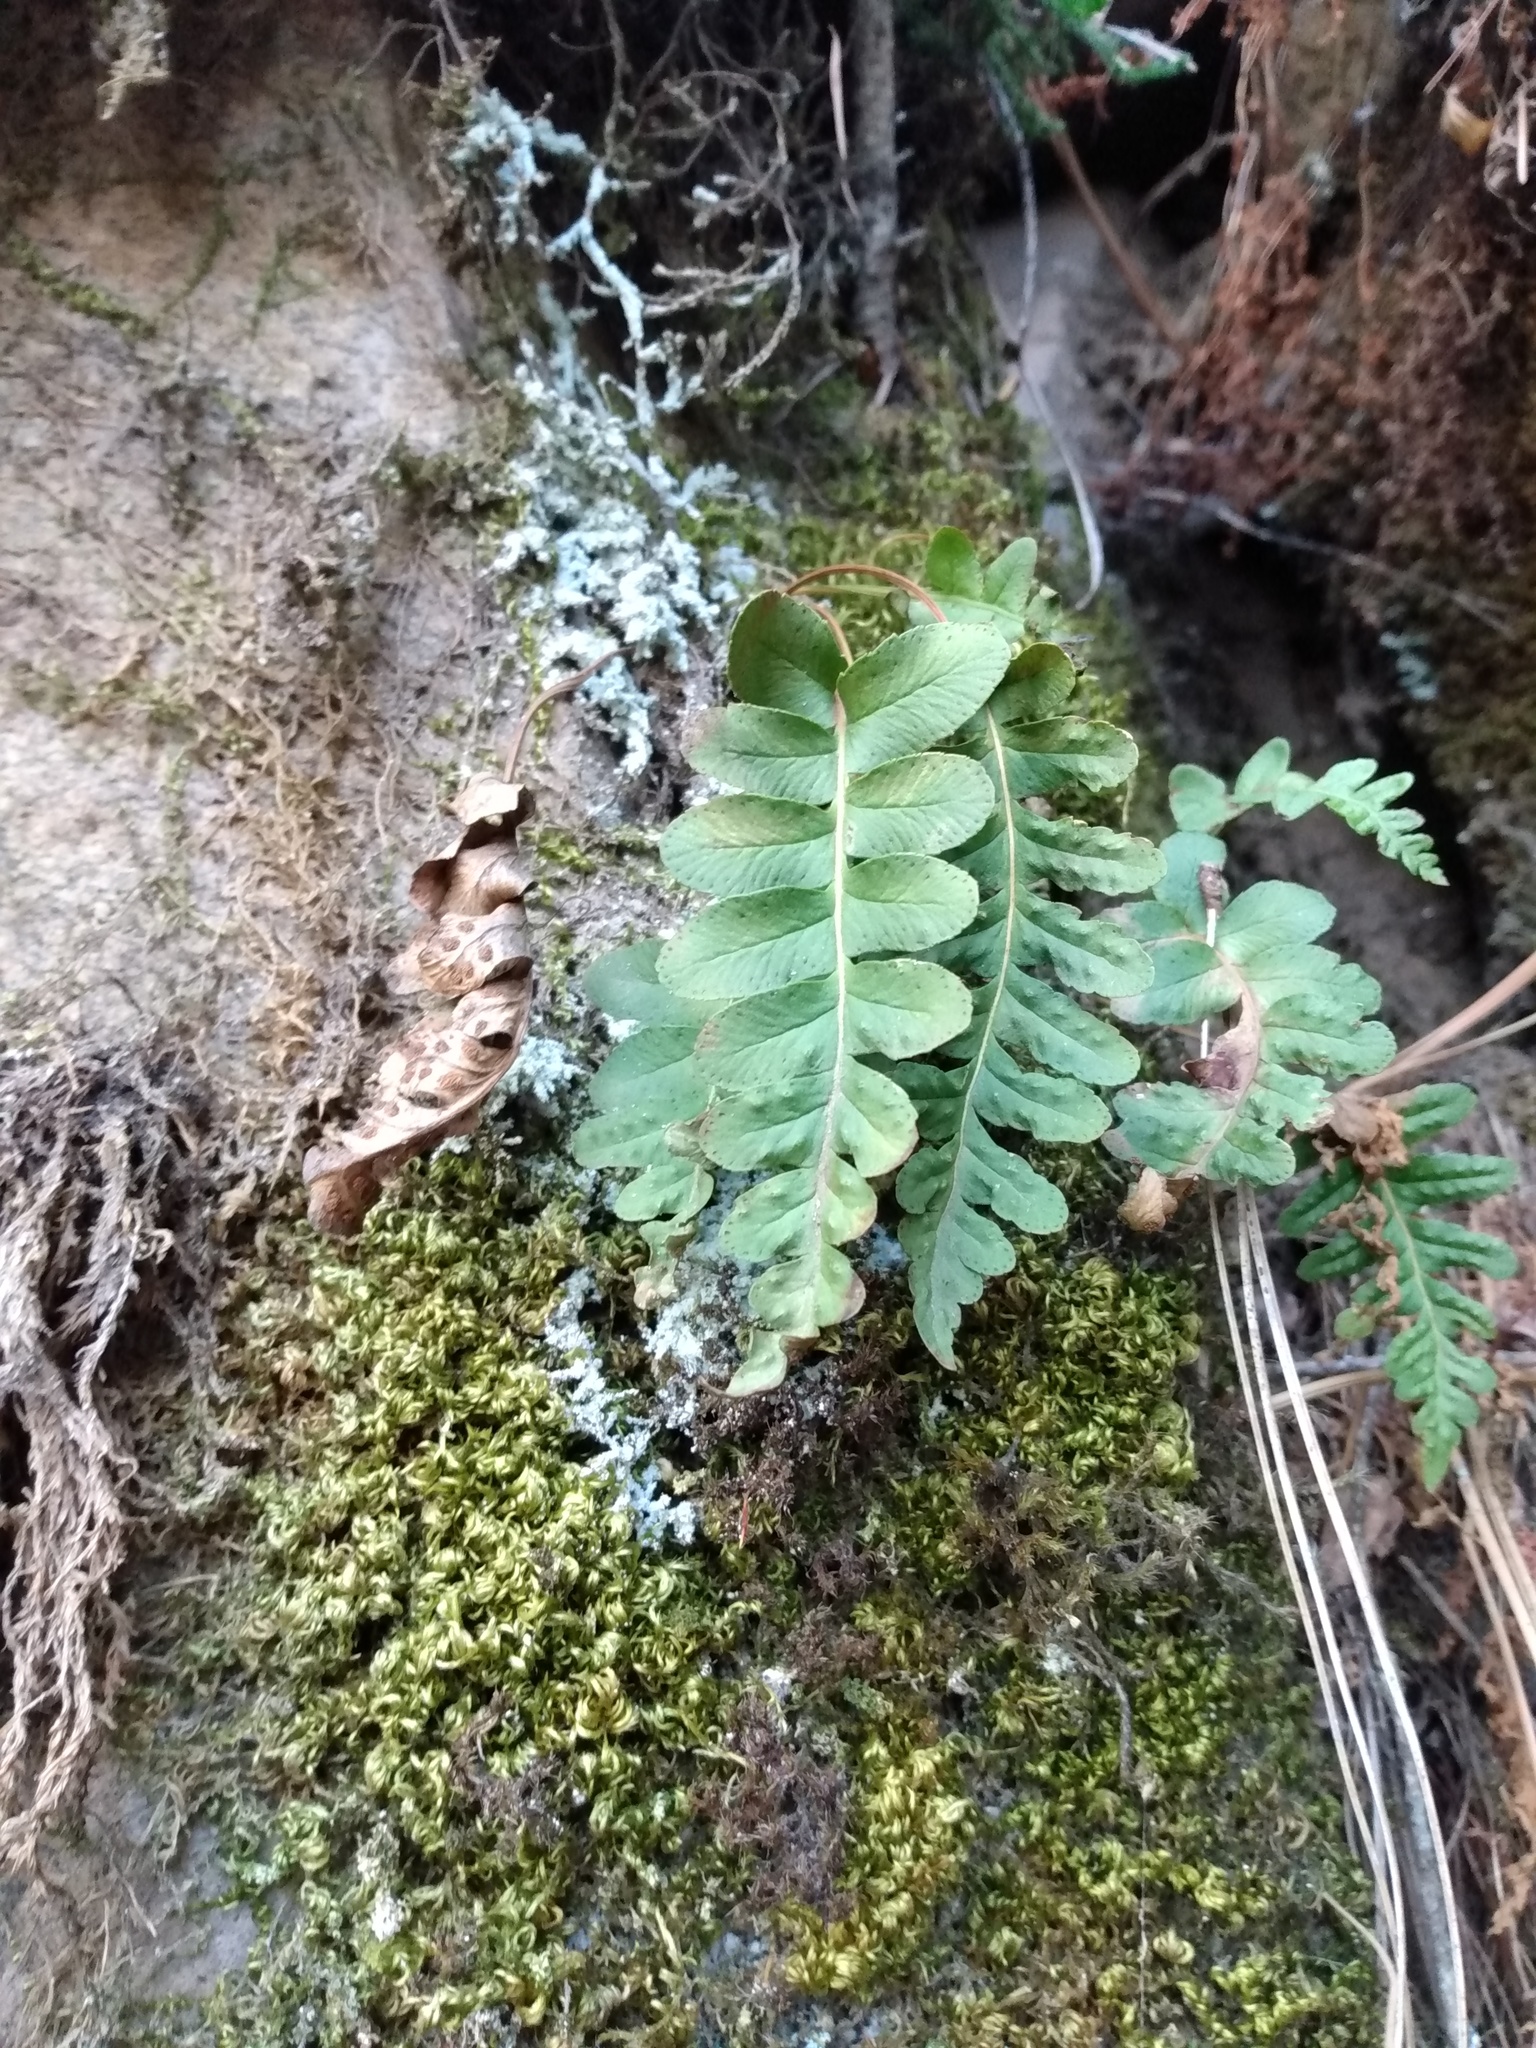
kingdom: Plantae
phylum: Tracheophyta
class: Polypodiopsida
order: Polypodiales
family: Polypodiaceae
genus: Polypodium
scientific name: Polypodium hesperium
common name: Western polypody
